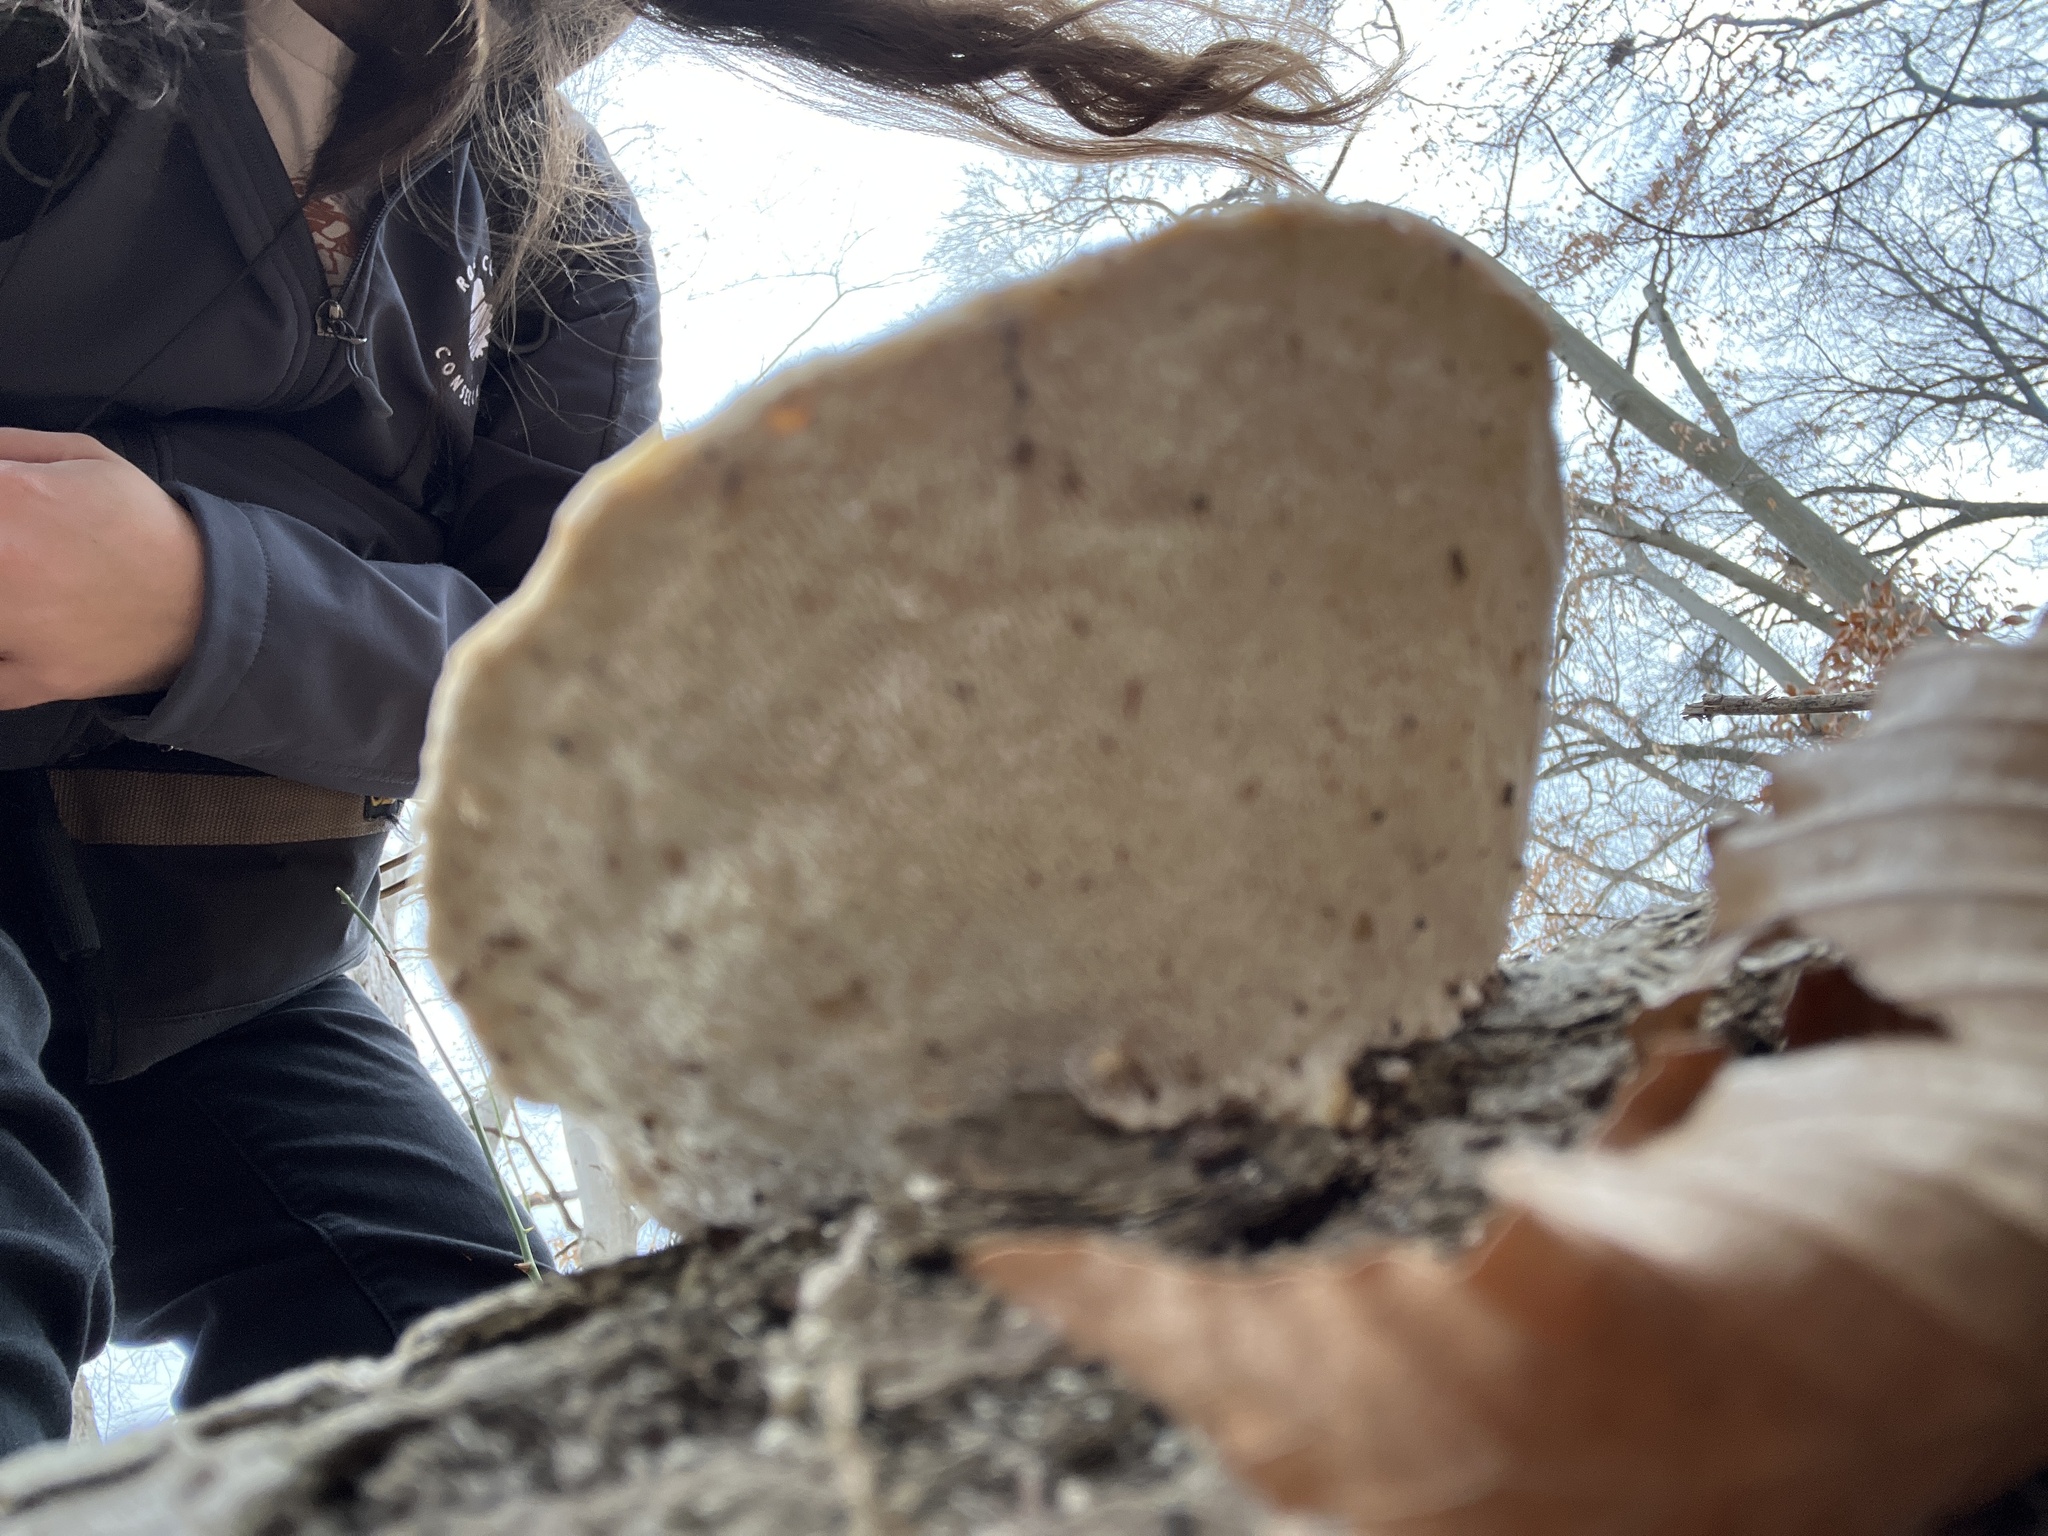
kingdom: Fungi
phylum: Basidiomycota
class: Agaricomycetes
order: Polyporales
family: Polyporaceae
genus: Trametes
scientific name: Trametes gibbosa
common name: Lumpy bracket
